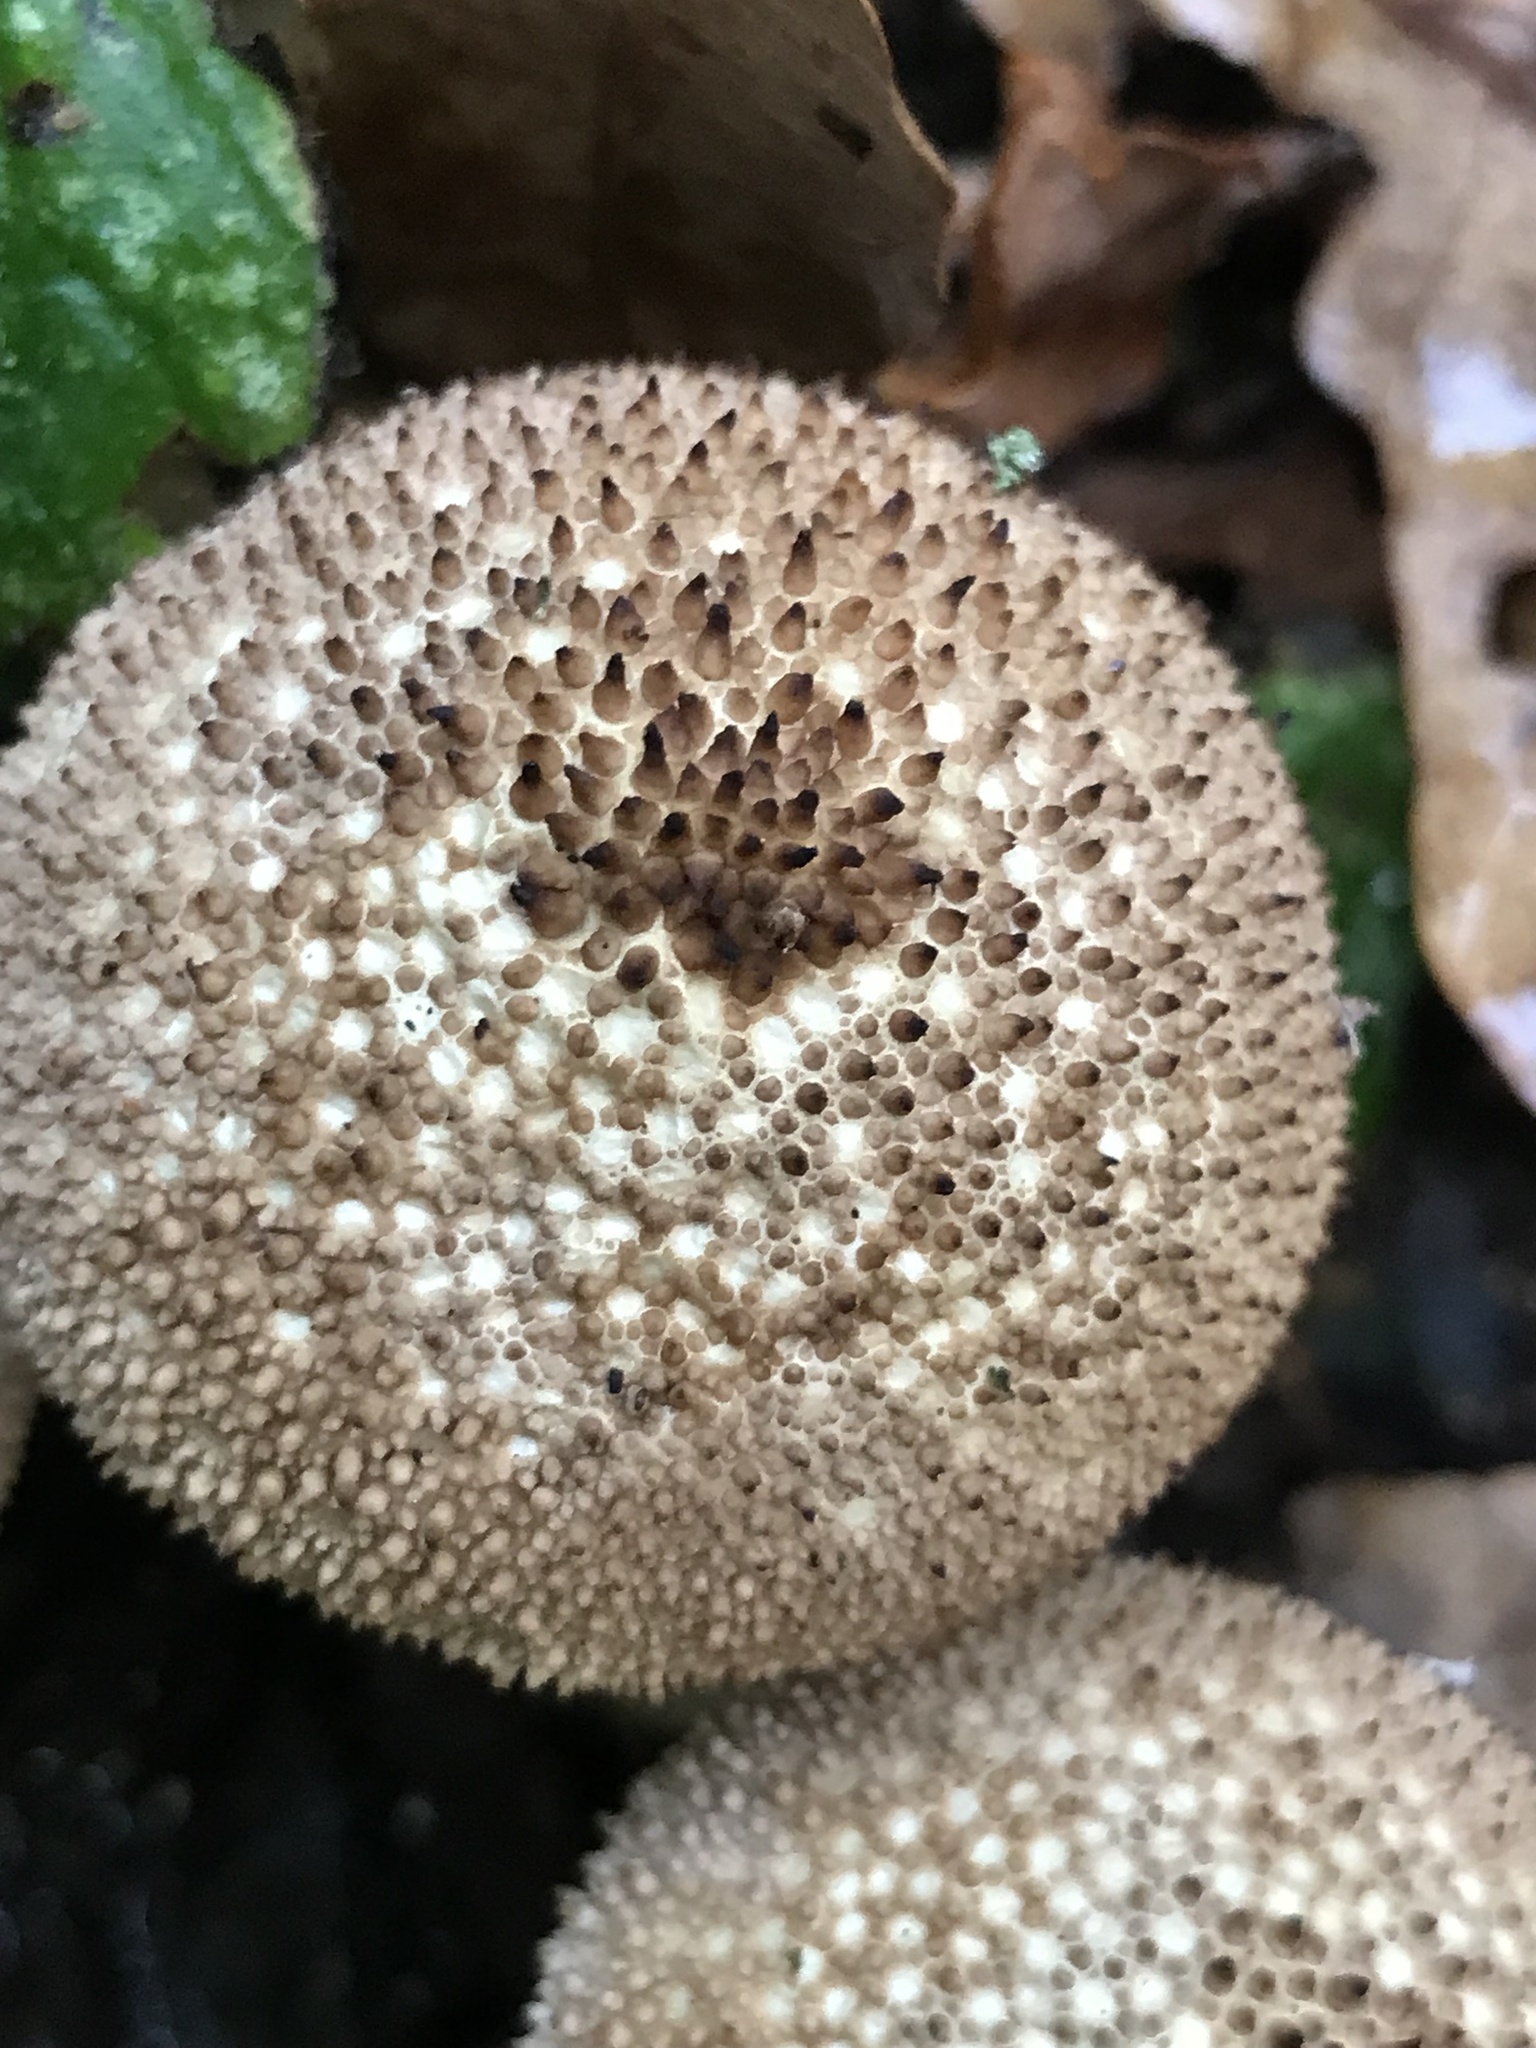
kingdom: Fungi
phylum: Basidiomycota
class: Agaricomycetes
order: Agaricales
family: Lycoperdaceae
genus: Lycoperdon
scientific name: Lycoperdon excipuliforme
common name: Pestle puffball
